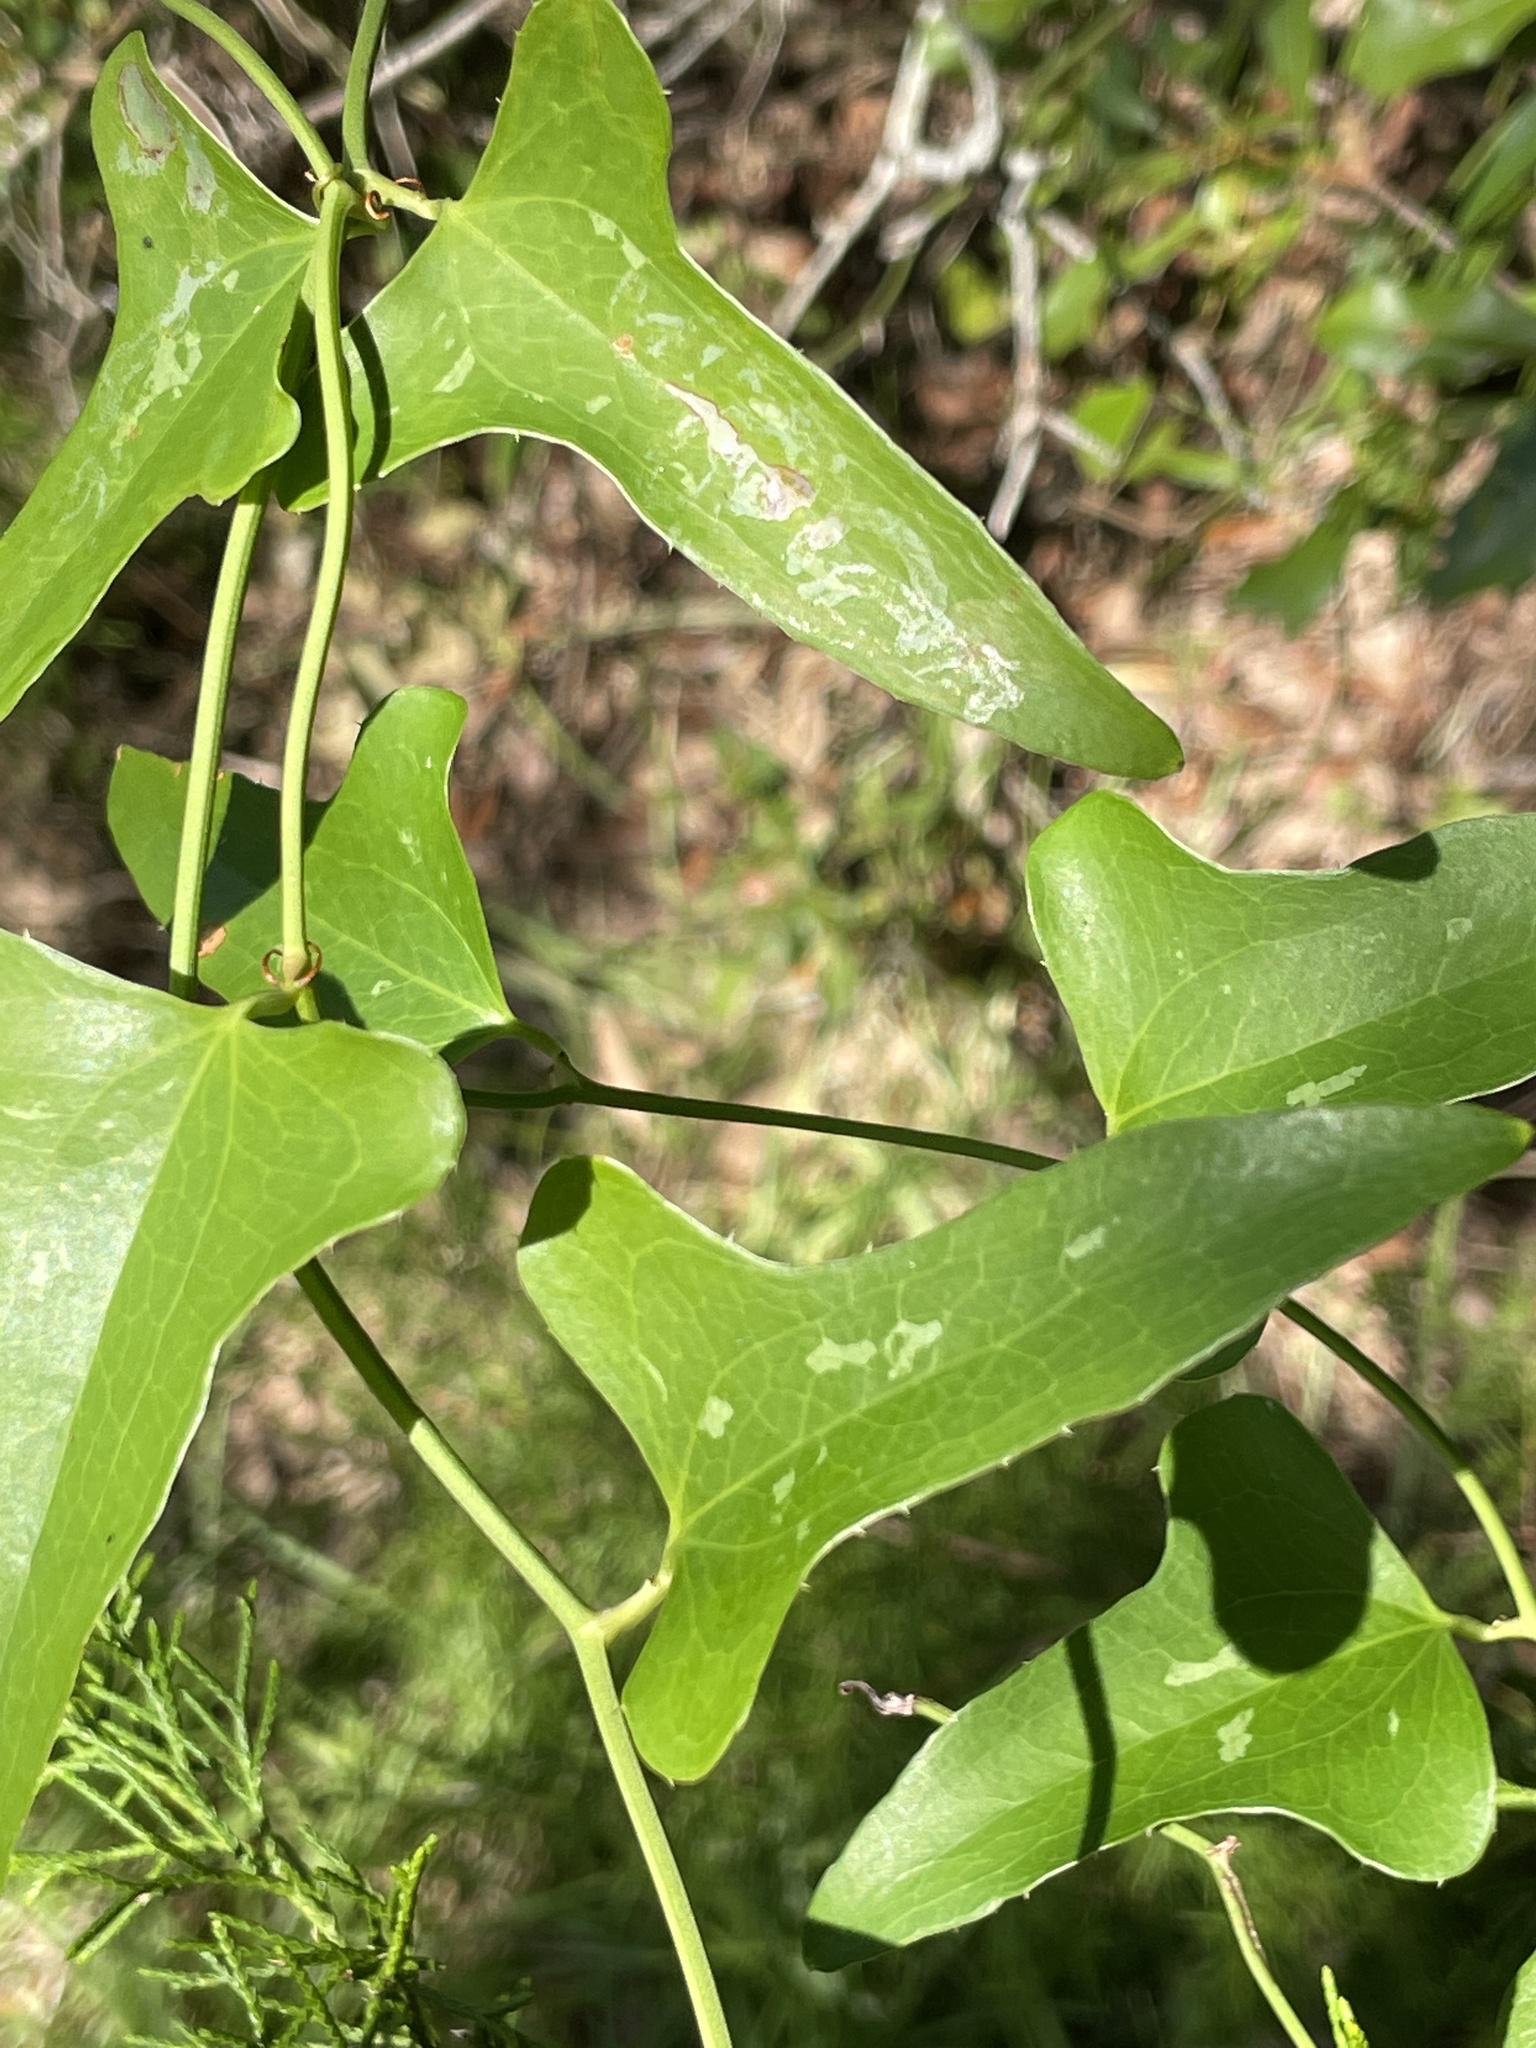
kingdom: Plantae
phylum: Tracheophyta
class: Liliopsida
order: Liliales
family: Smilacaceae
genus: Smilax
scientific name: Smilax bona-nox
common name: Catbrier
